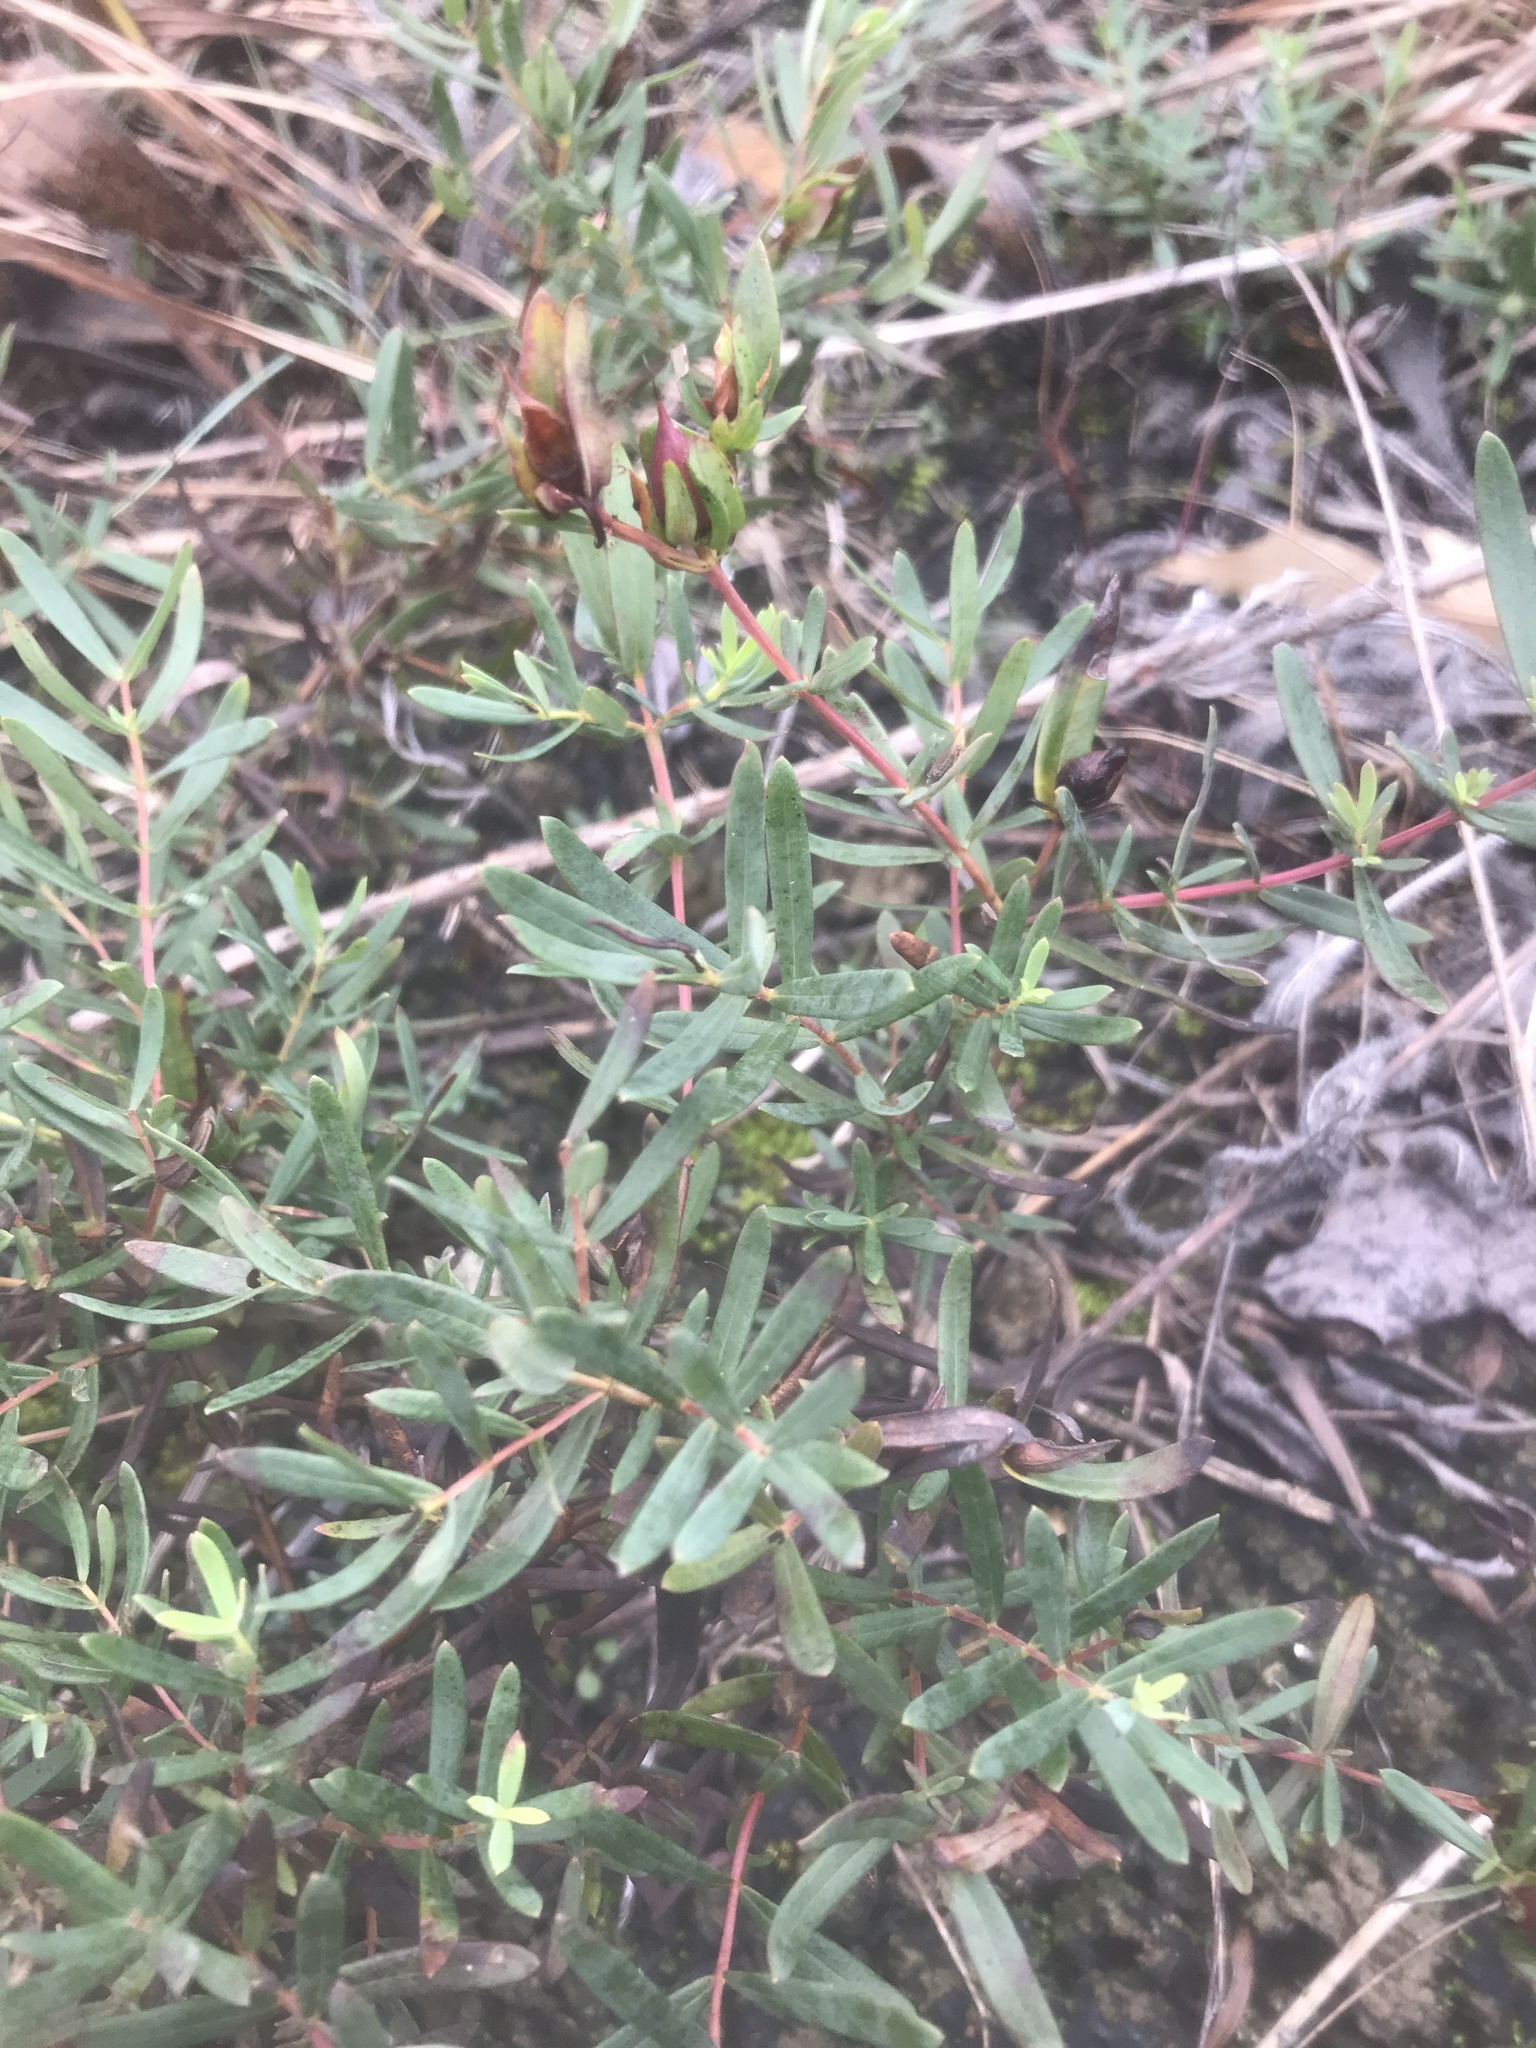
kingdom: Plantae
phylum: Tracheophyta
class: Magnoliopsida
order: Malpighiales
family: Hypericaceae
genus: Hypericum
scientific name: Hypericum dolabriforme
